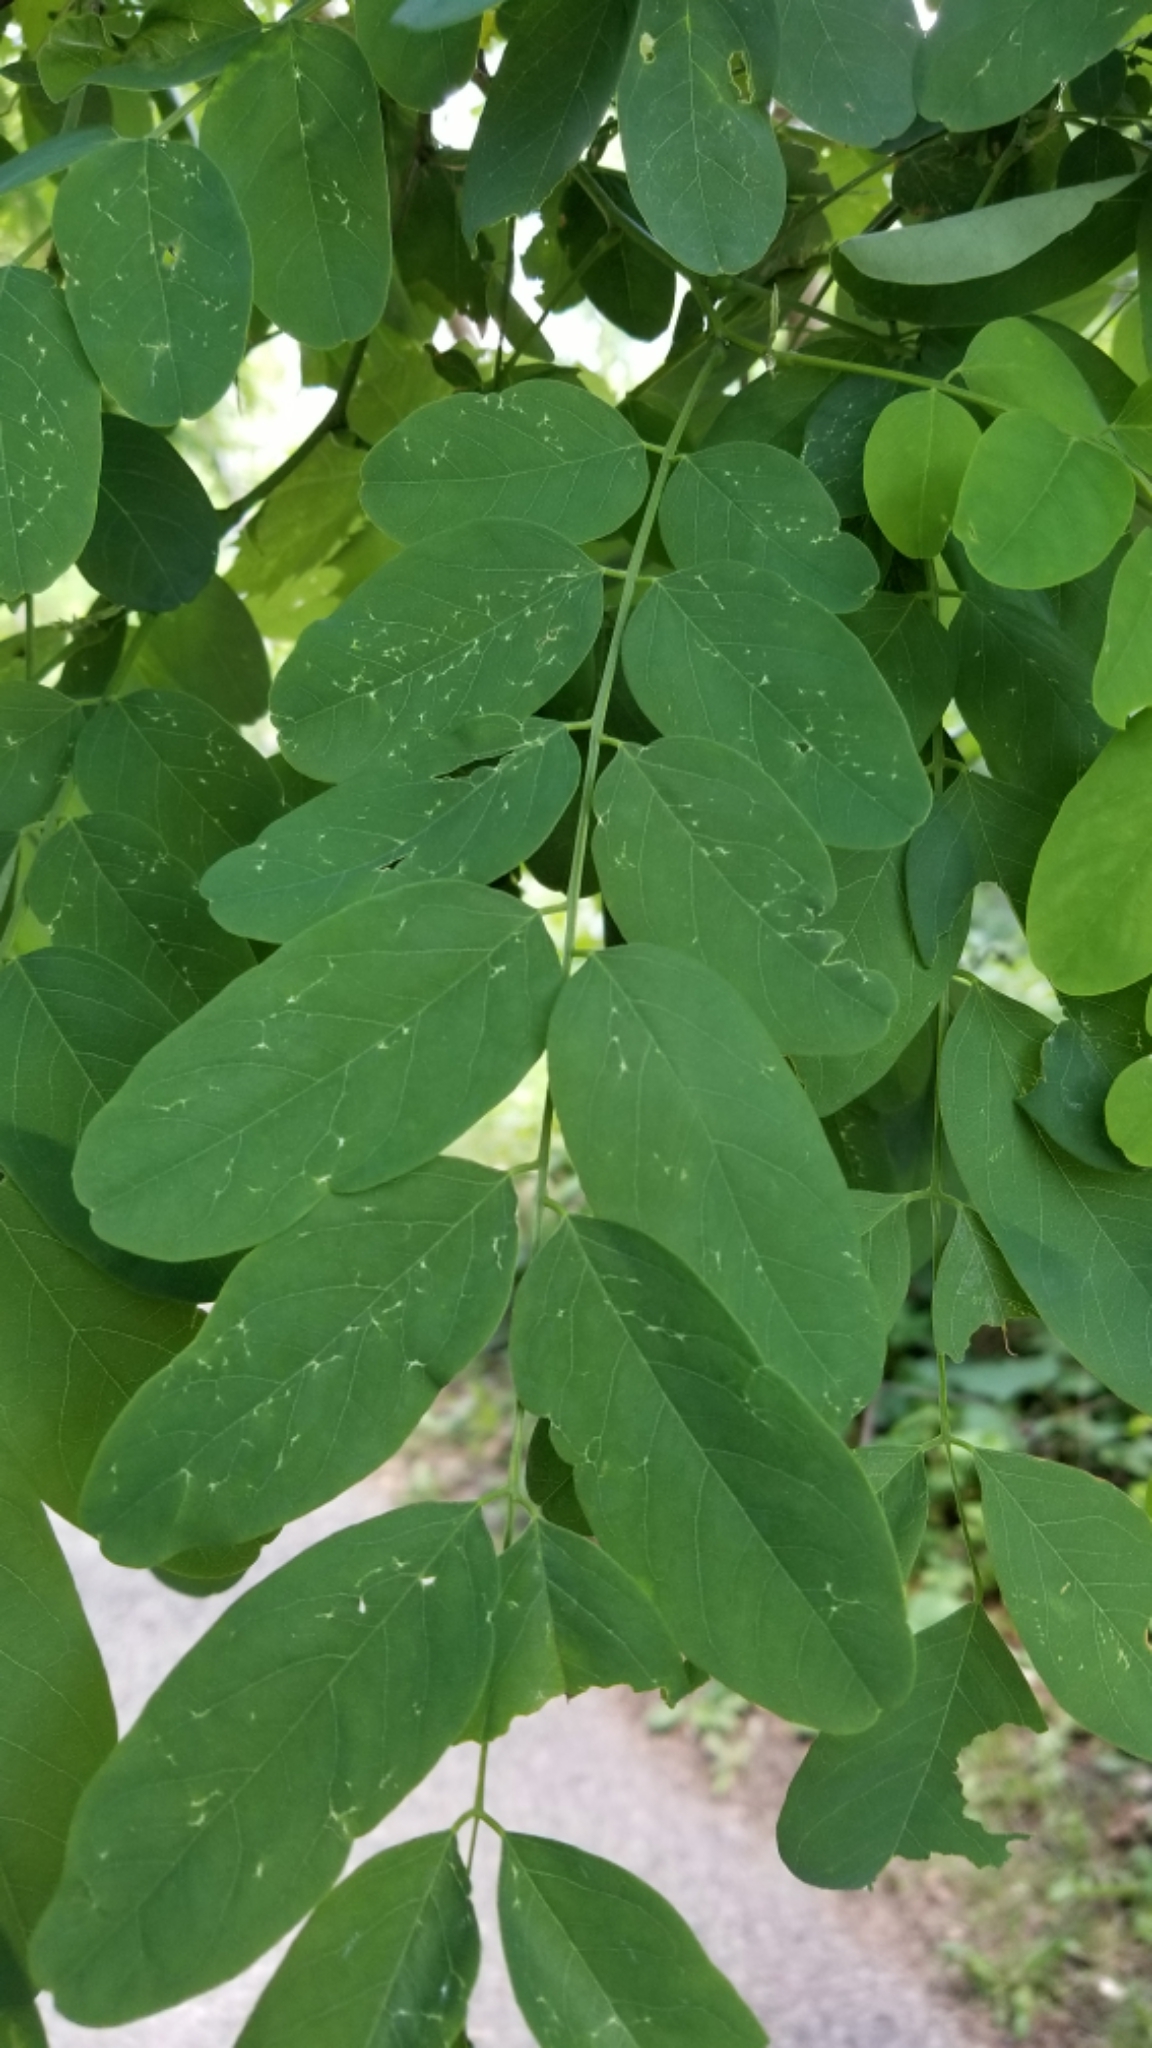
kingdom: Plantae
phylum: Tracheophyta
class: Magnoliopsida
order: Fabales
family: Fabaceae
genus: Robinia
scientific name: Robinia pseudoacacia
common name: Black locust
